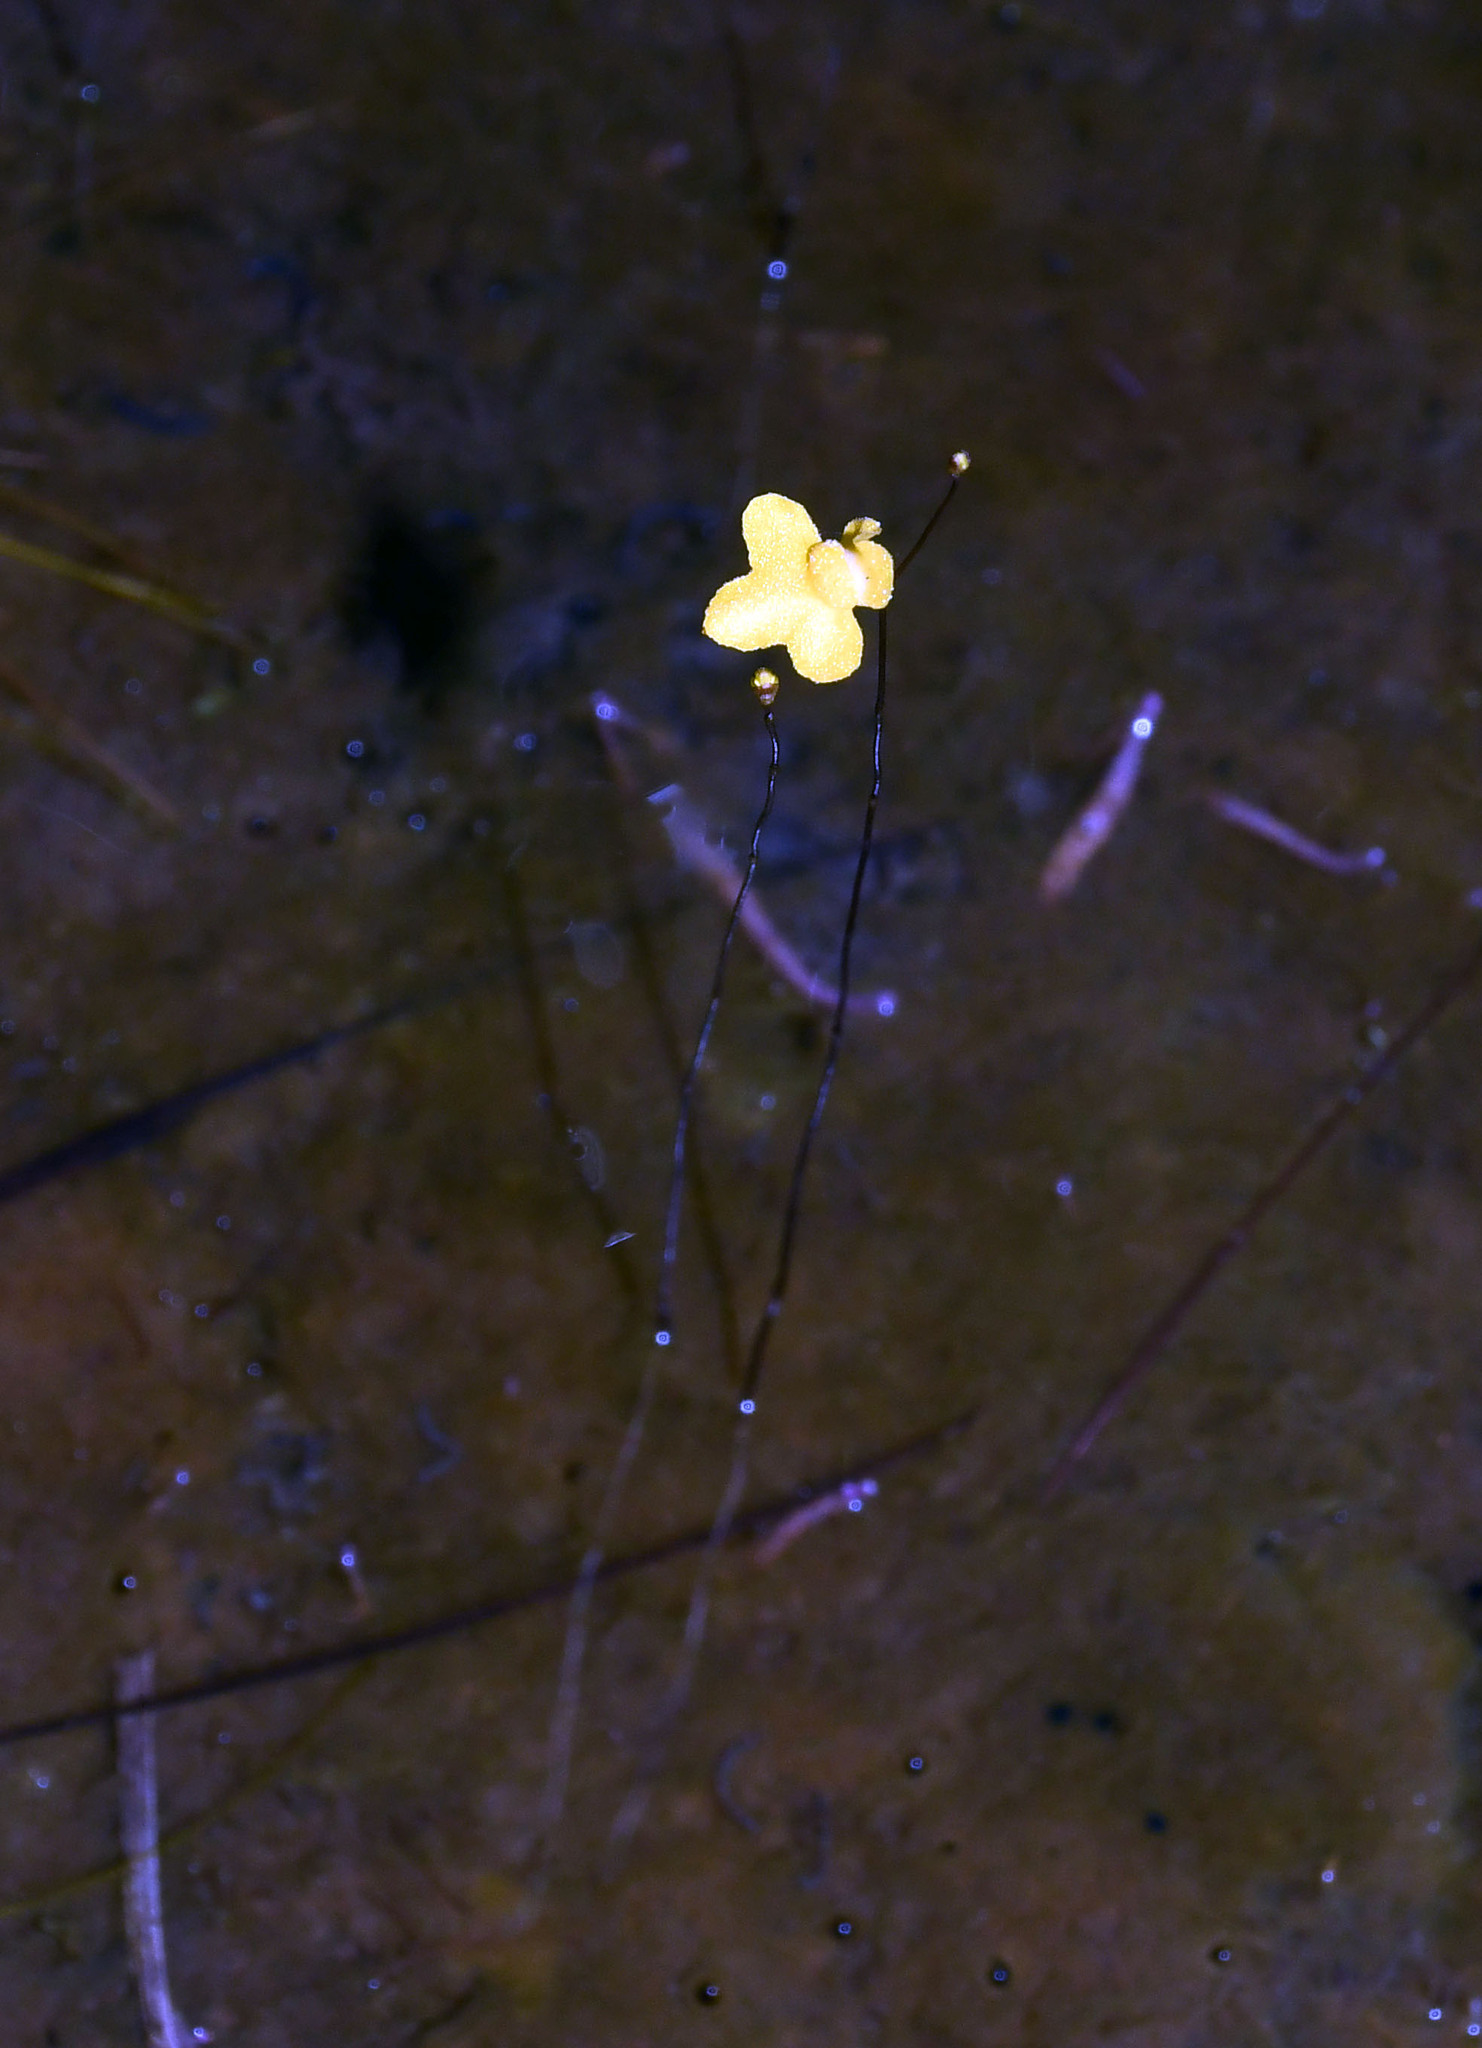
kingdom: Plantae
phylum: Tracheophyta
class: Magnoliopsida
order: Lamiales
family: Lentibulariaceae
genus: Utricularia
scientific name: Utricularia subulata
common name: Tiny bladderwort
